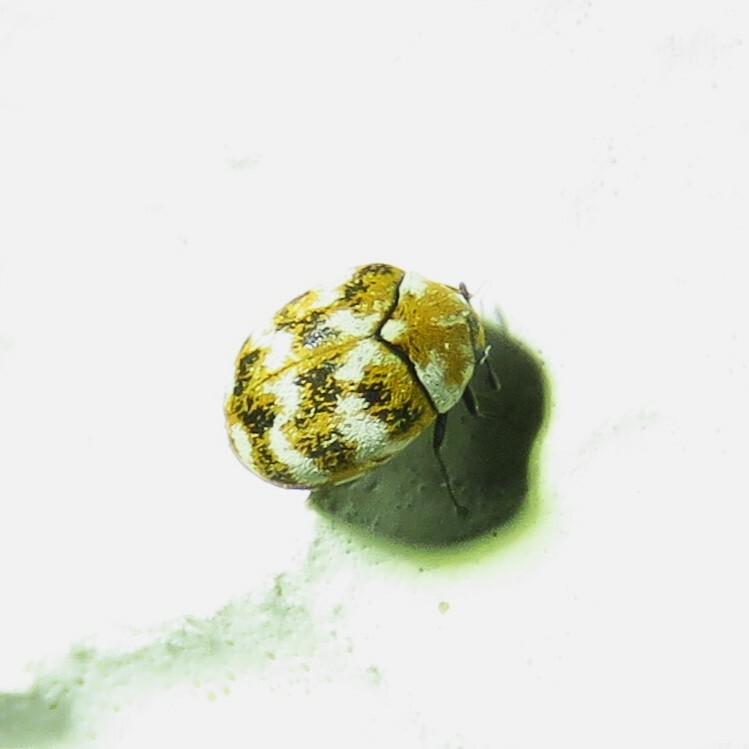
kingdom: Animalia
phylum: Arthropoda
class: Insecta
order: Coleoptera
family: Dermestidae
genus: Anthrenus
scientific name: Anthrenus verbasci
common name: Varied carpet beetle
